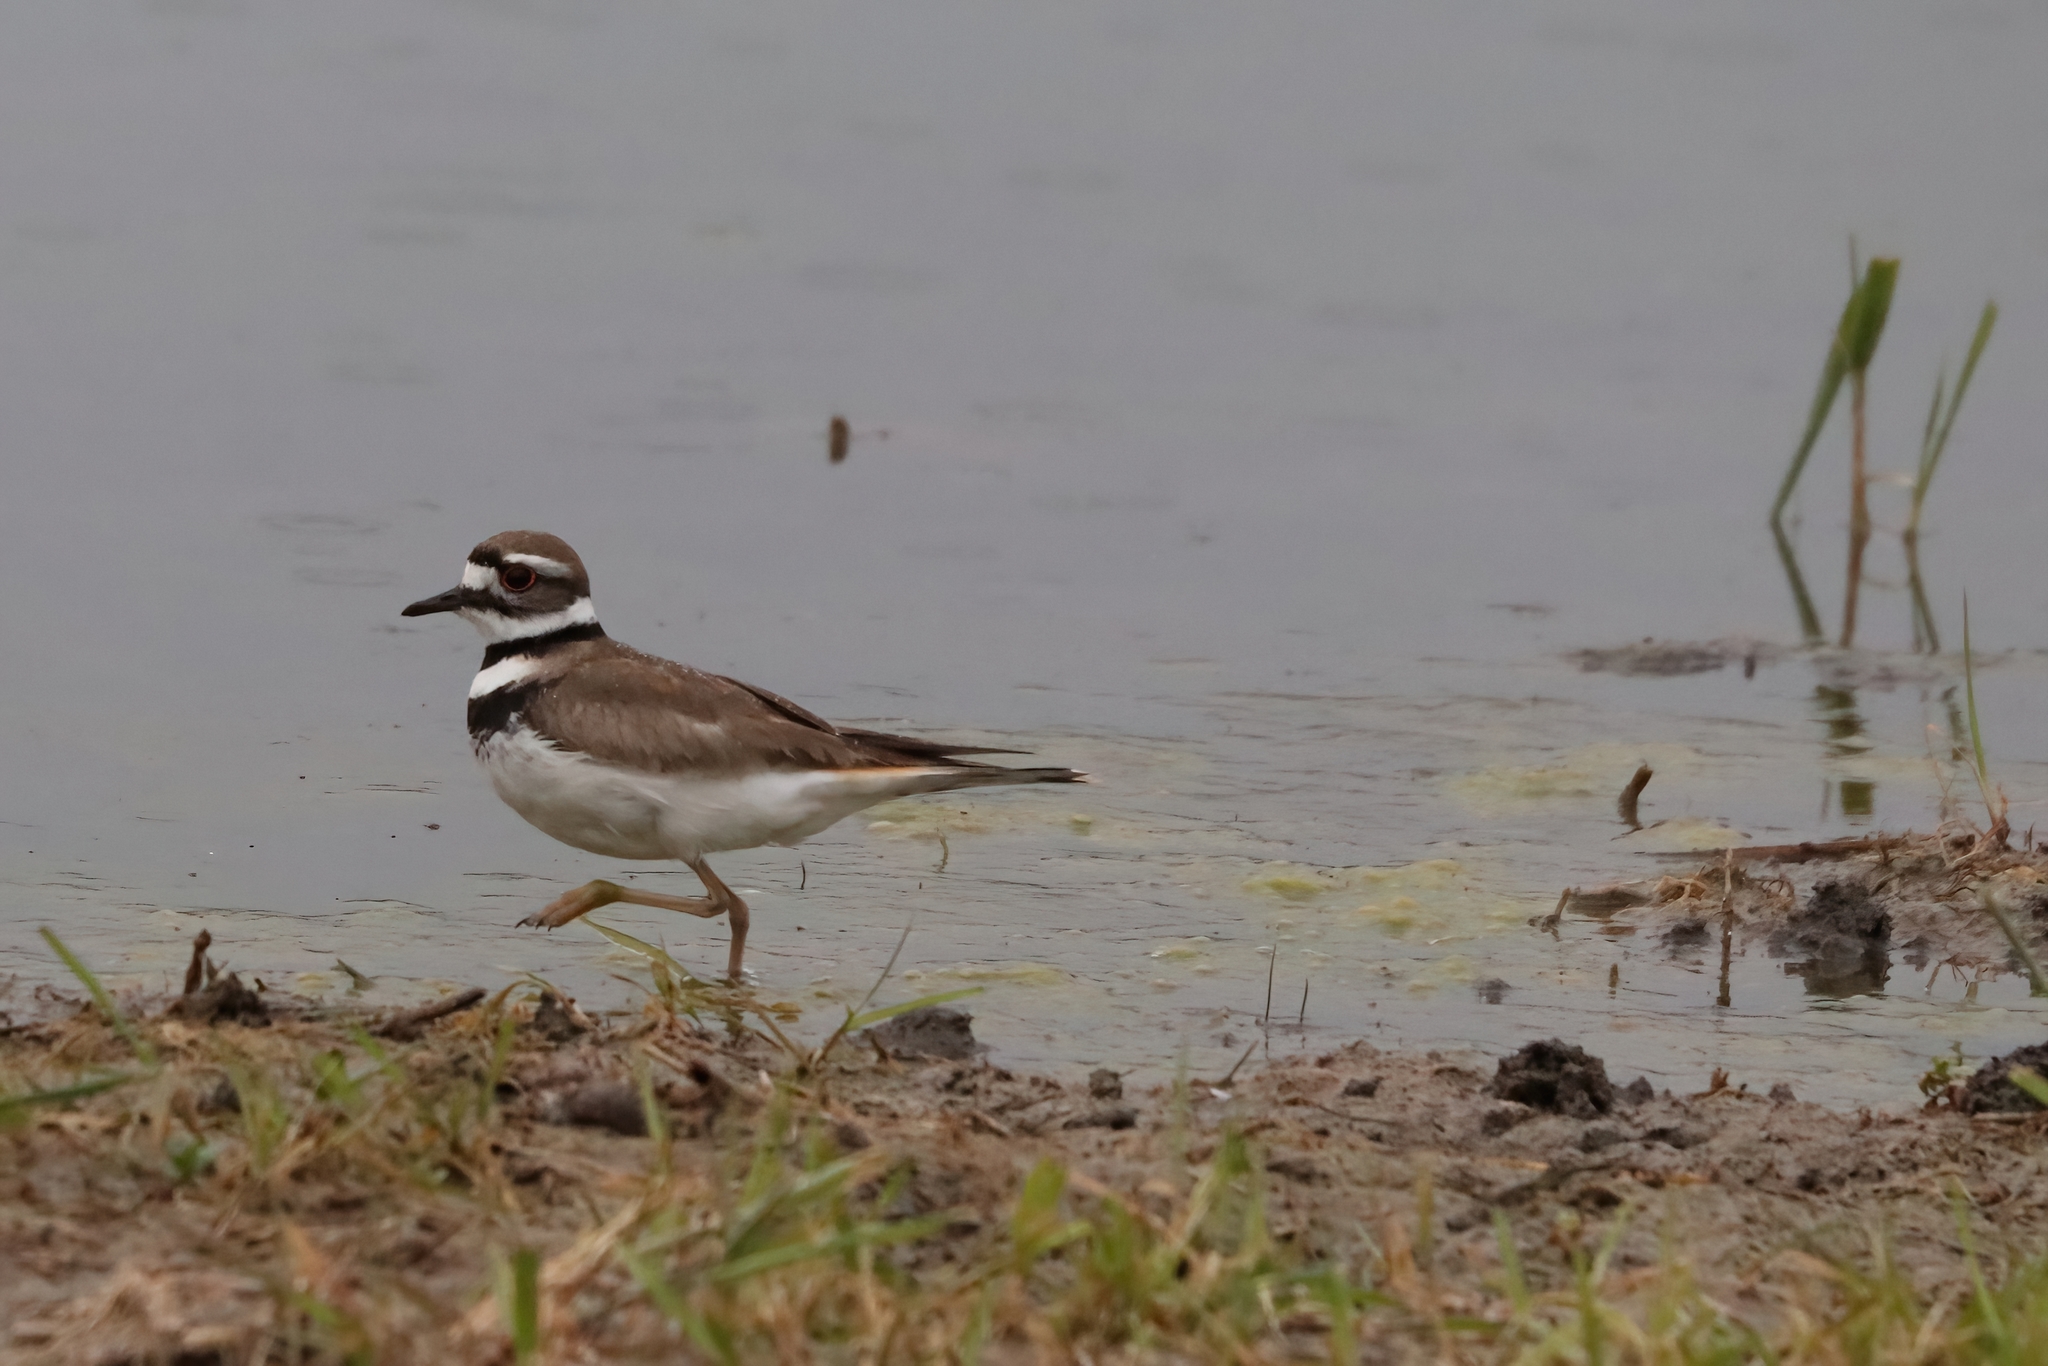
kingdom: Animalia
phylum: Chordata
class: Aves
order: Charadriiformes
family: Charadriidae
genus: Charadrius
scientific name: Charadrius vociferus
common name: Killdeer
